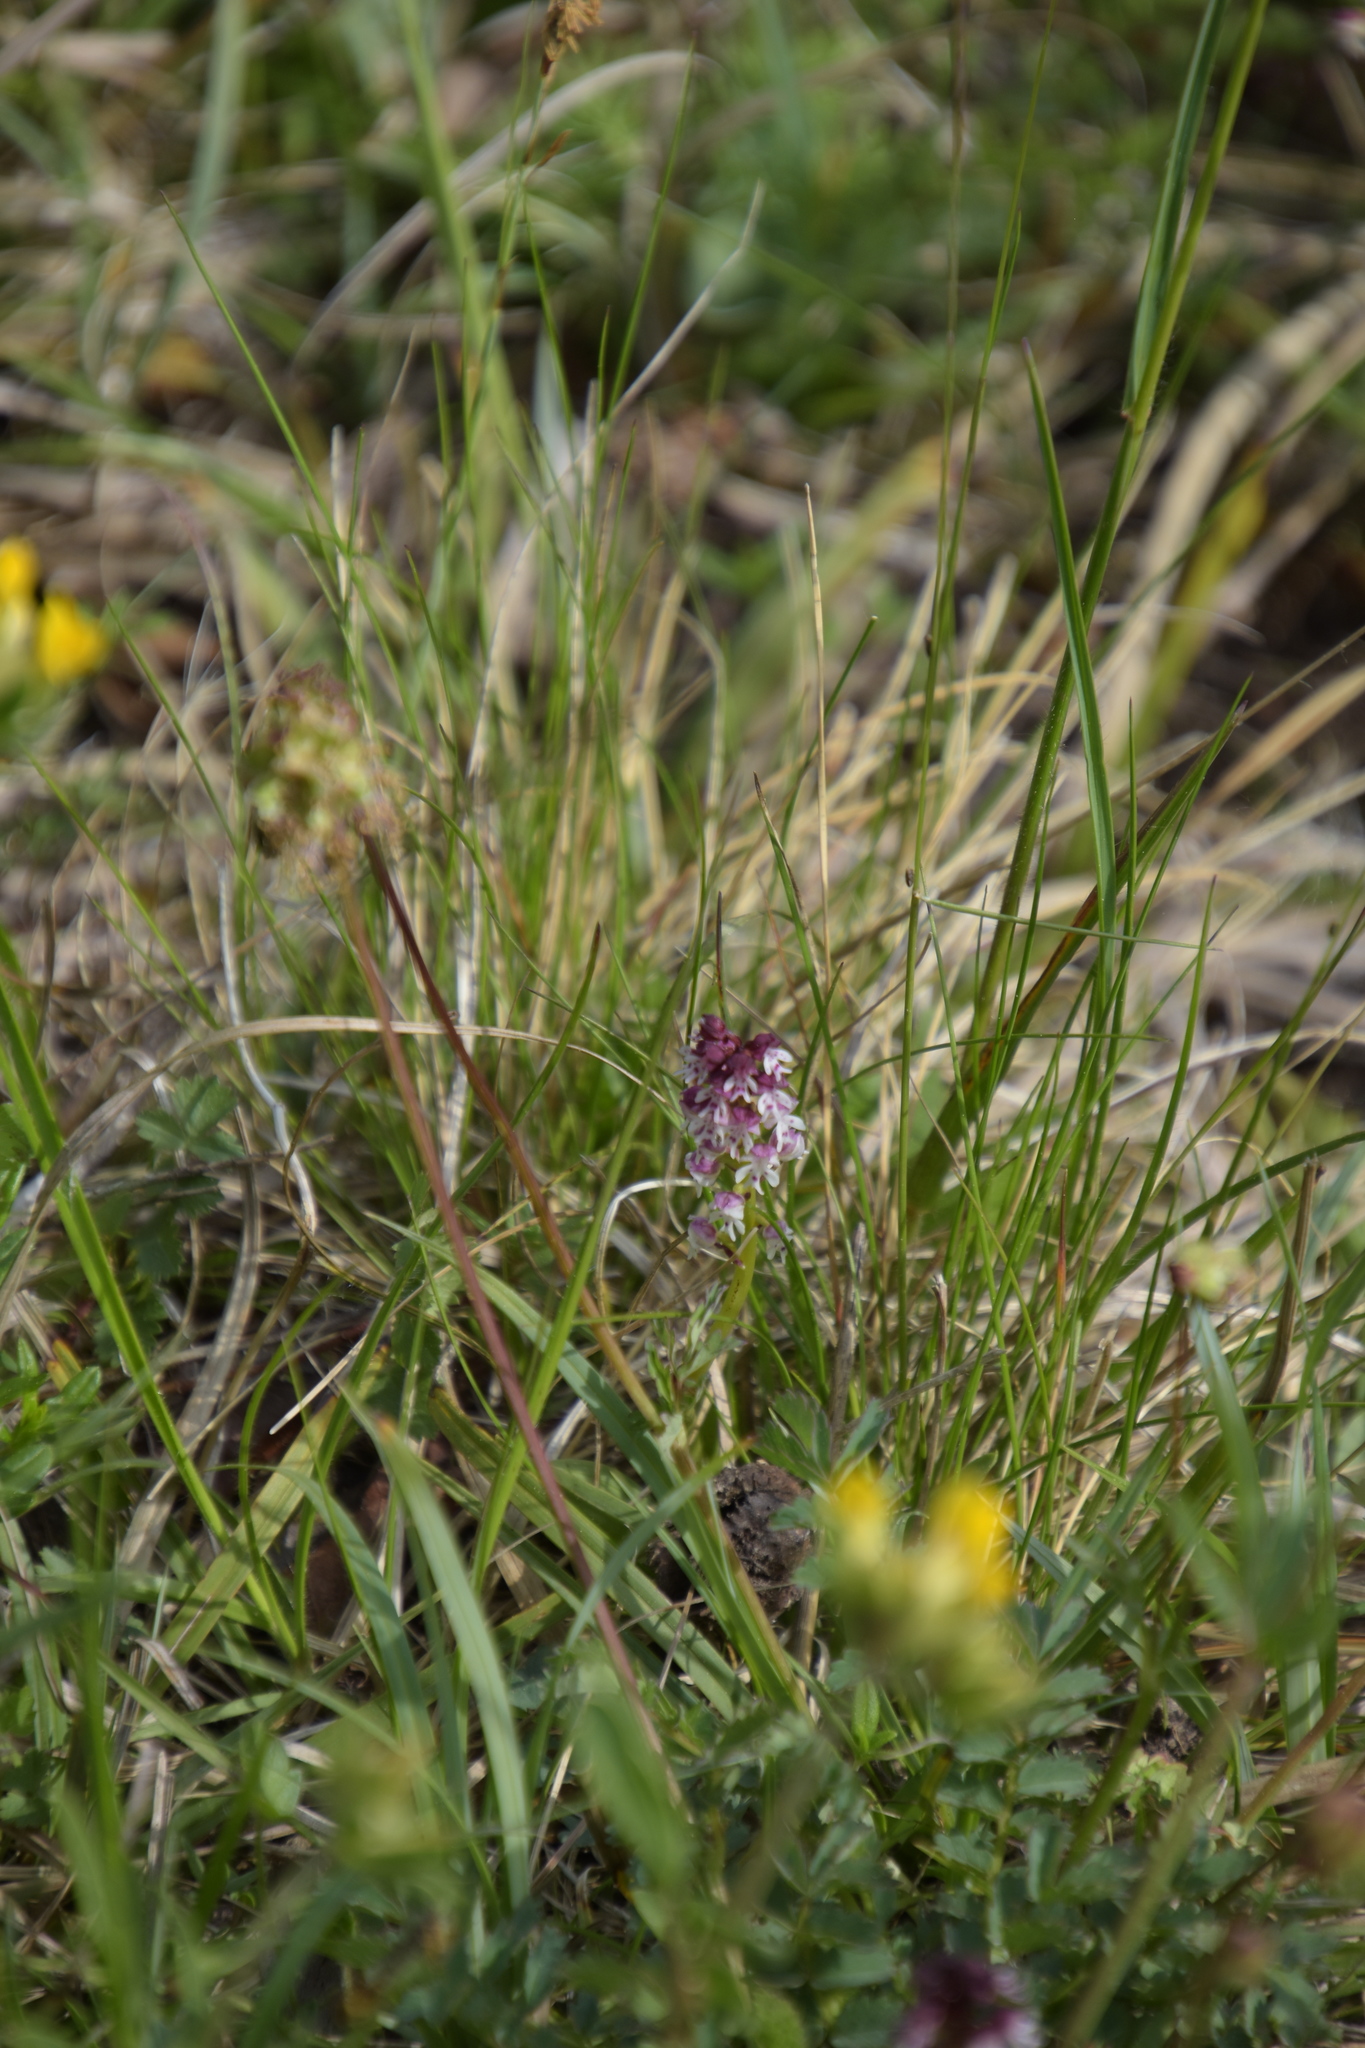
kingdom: Plantae
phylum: Tracheophyta
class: Liliopsida
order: Asparagales
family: Orchidaceae
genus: Neotinea
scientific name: Neotinea ustulata
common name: Burnt orchid
